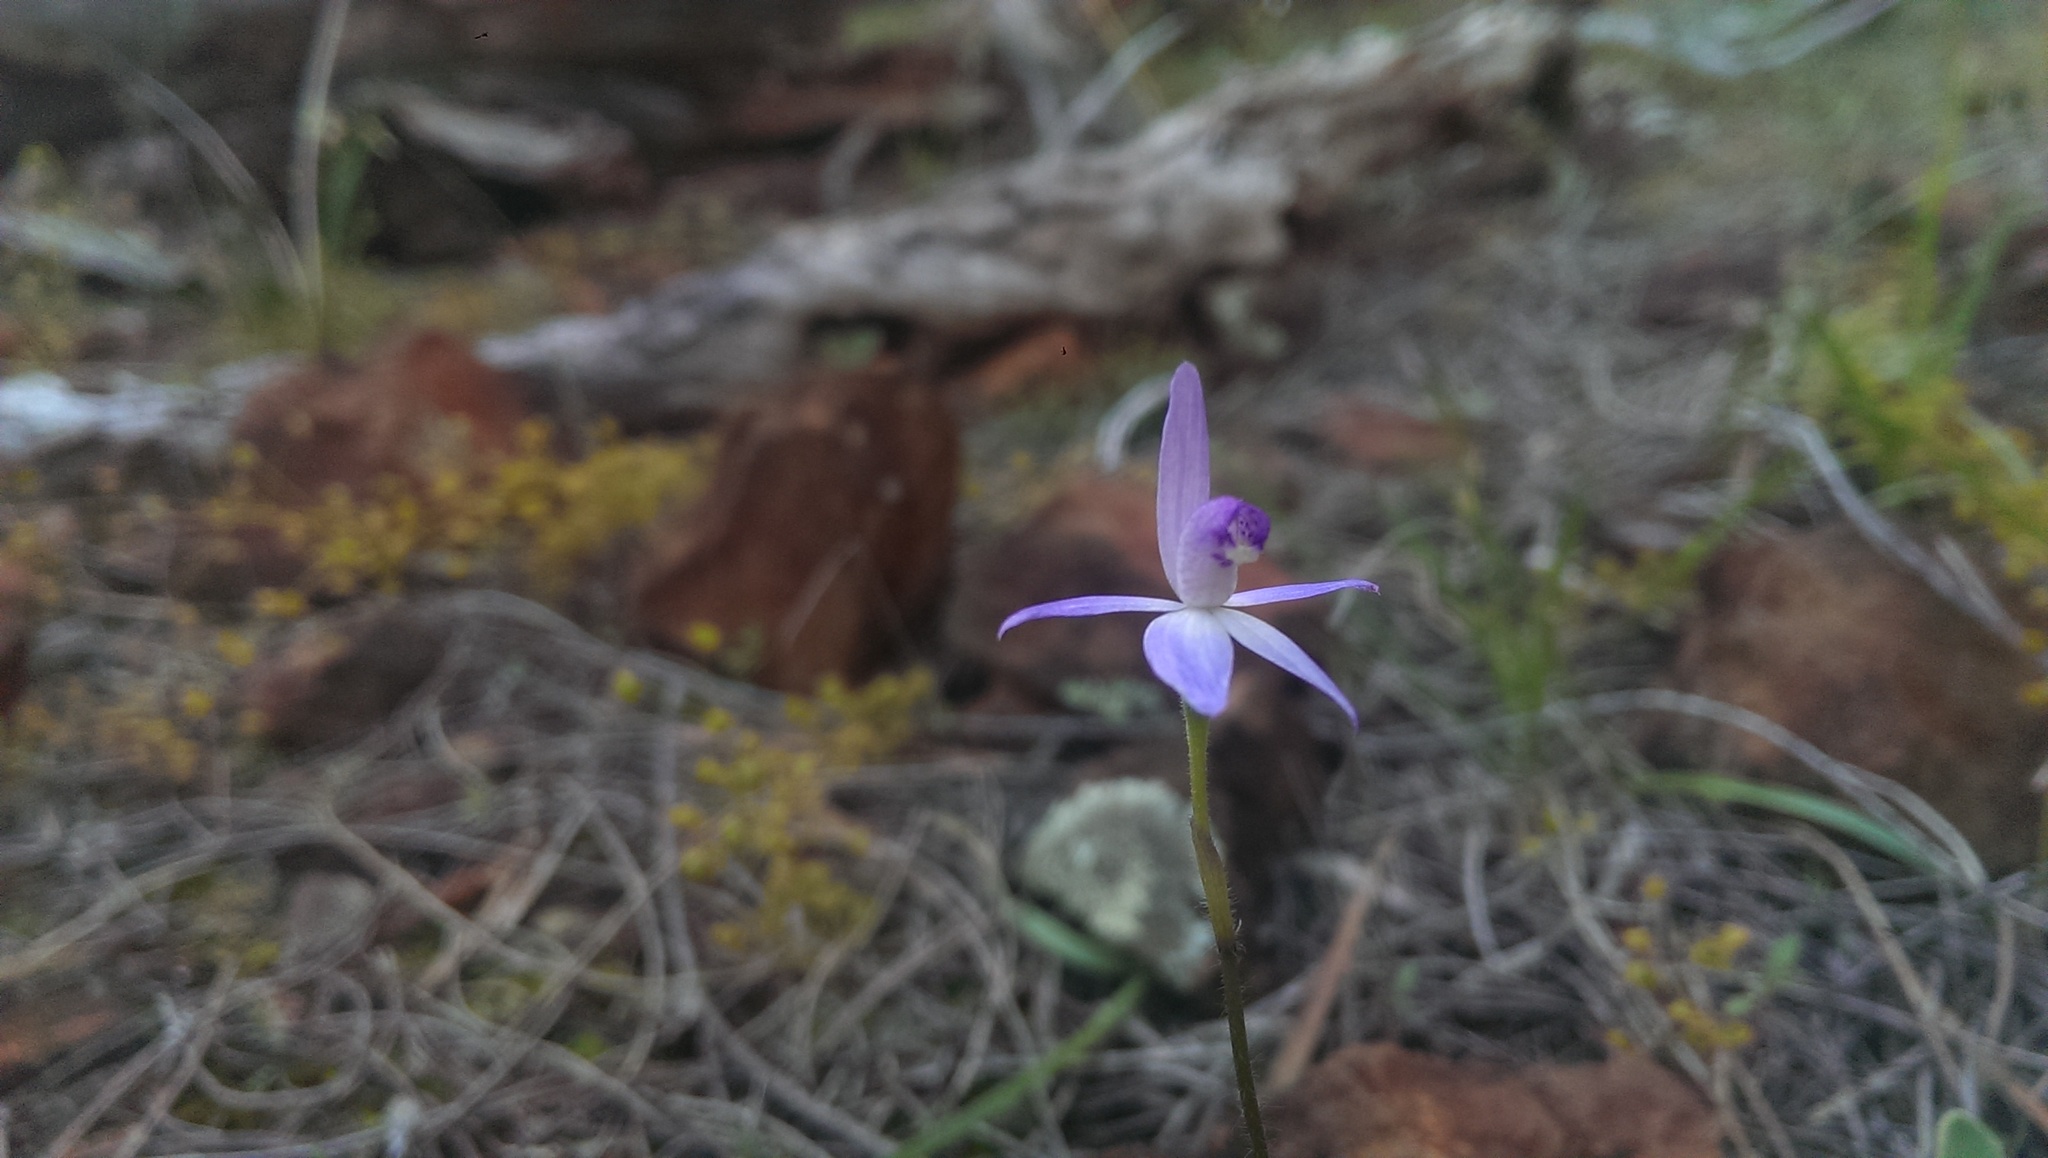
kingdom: Plantae
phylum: Tracheophyta
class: Liliopsida
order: Asparagales
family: Orchidaceae
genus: Caladenia
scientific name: Caladenia amplexans
